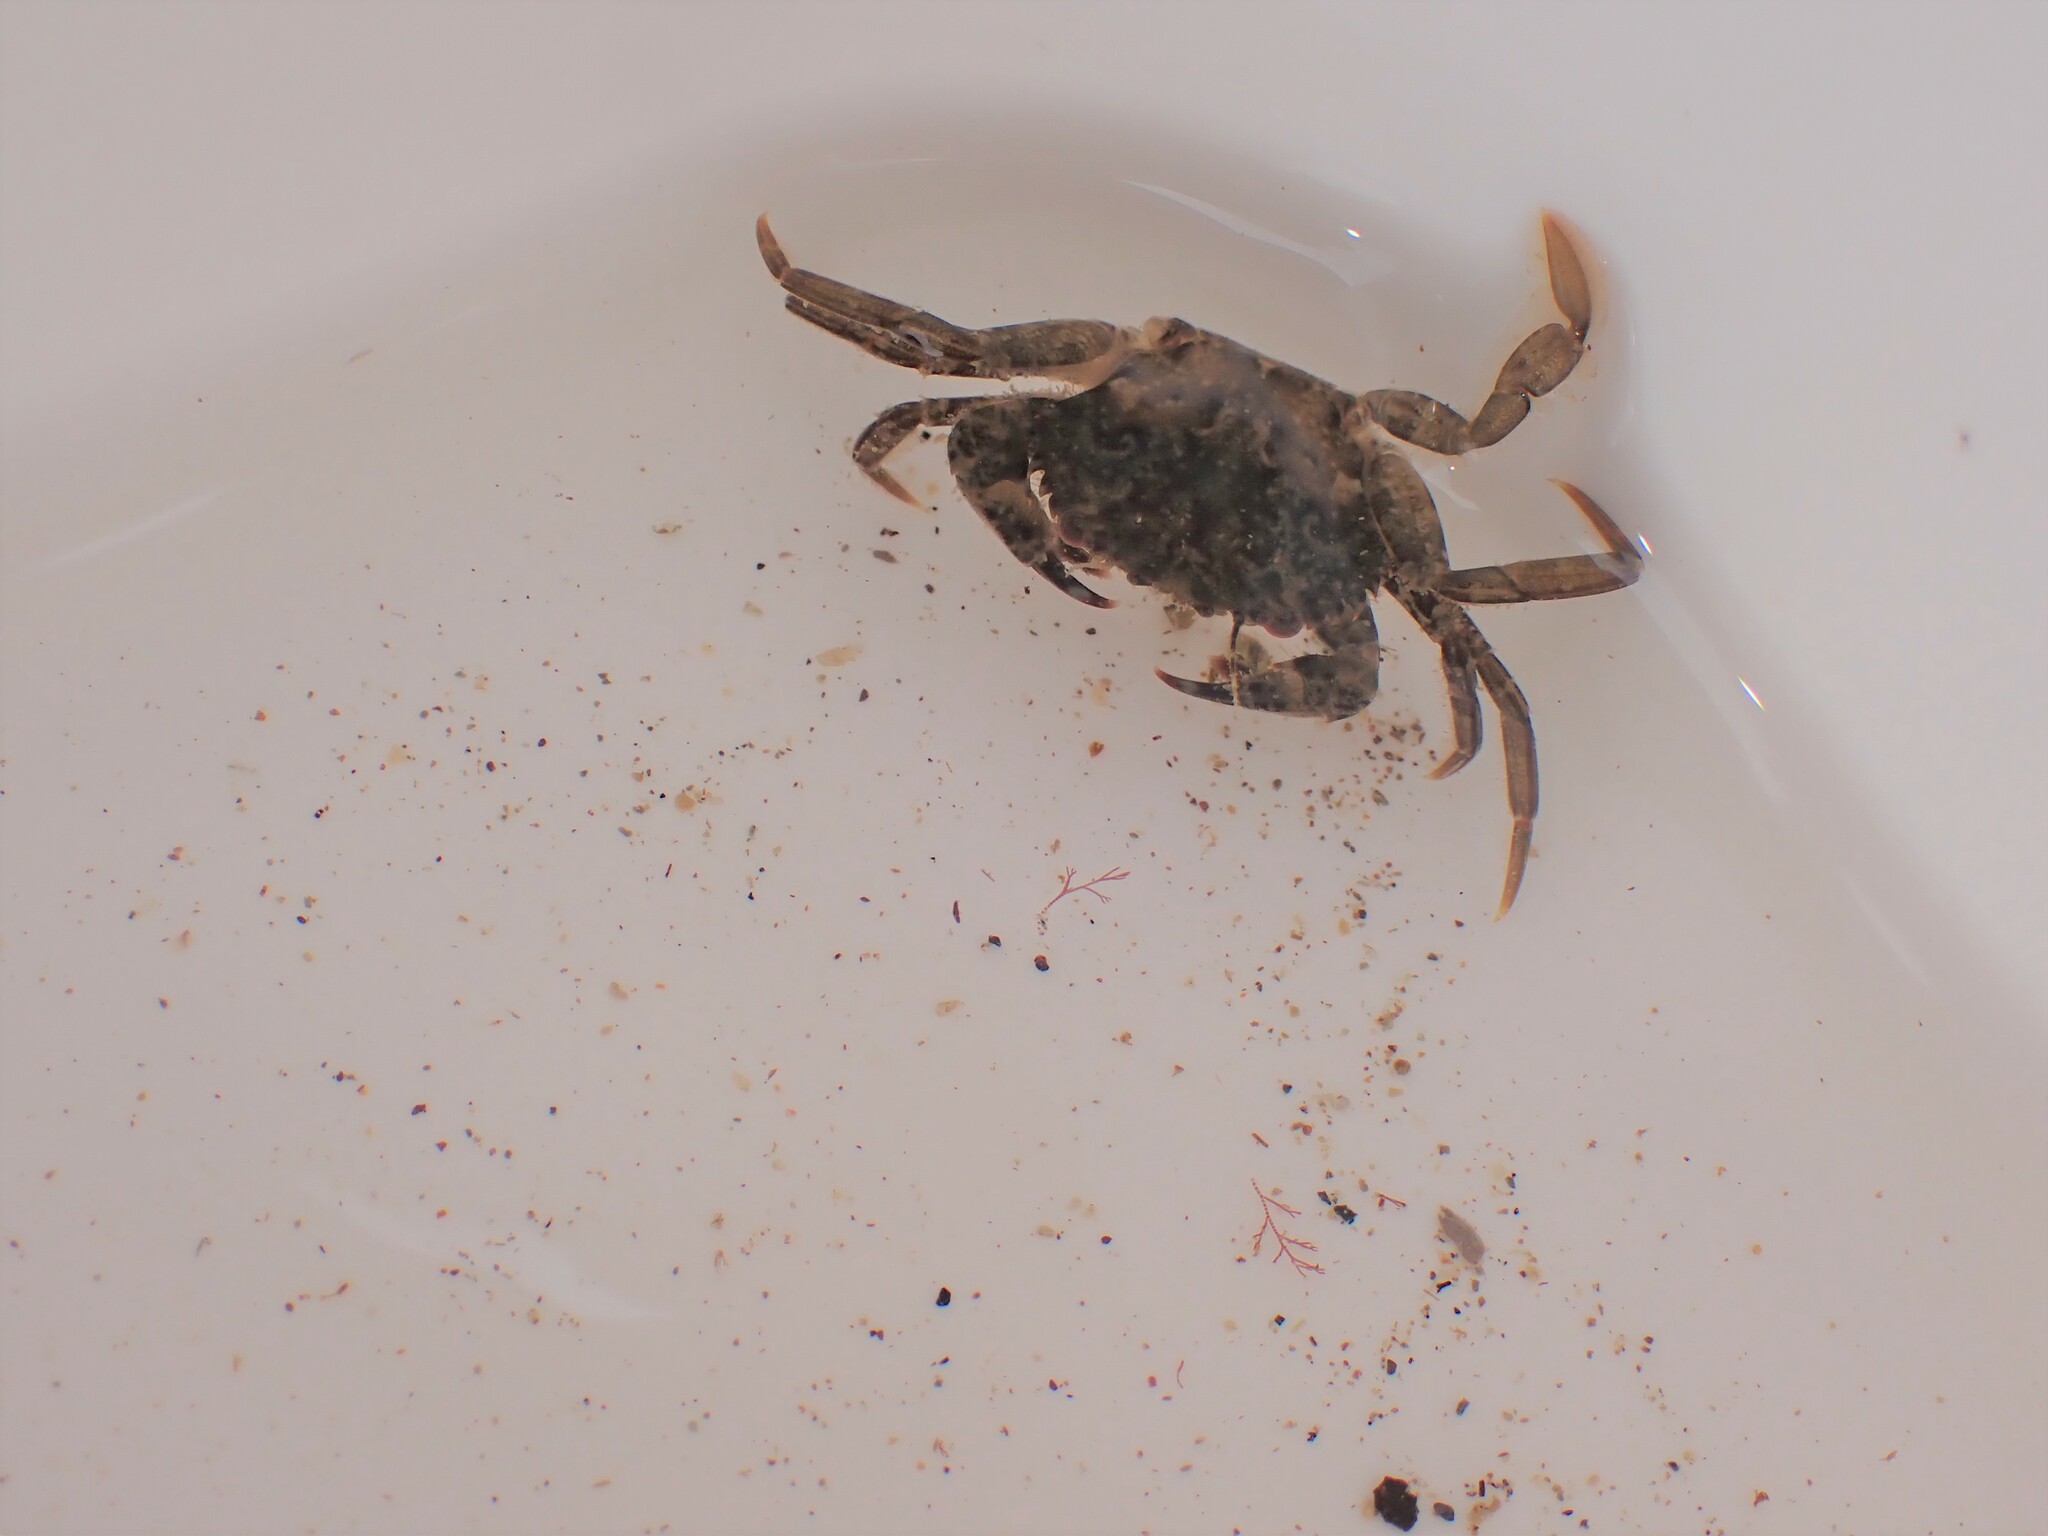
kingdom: Animalia
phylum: Arthropoda
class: Malacostraca
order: Decapoda
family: Carcinidae
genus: Carcinus
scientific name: Carcinus maenas
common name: European green crab
